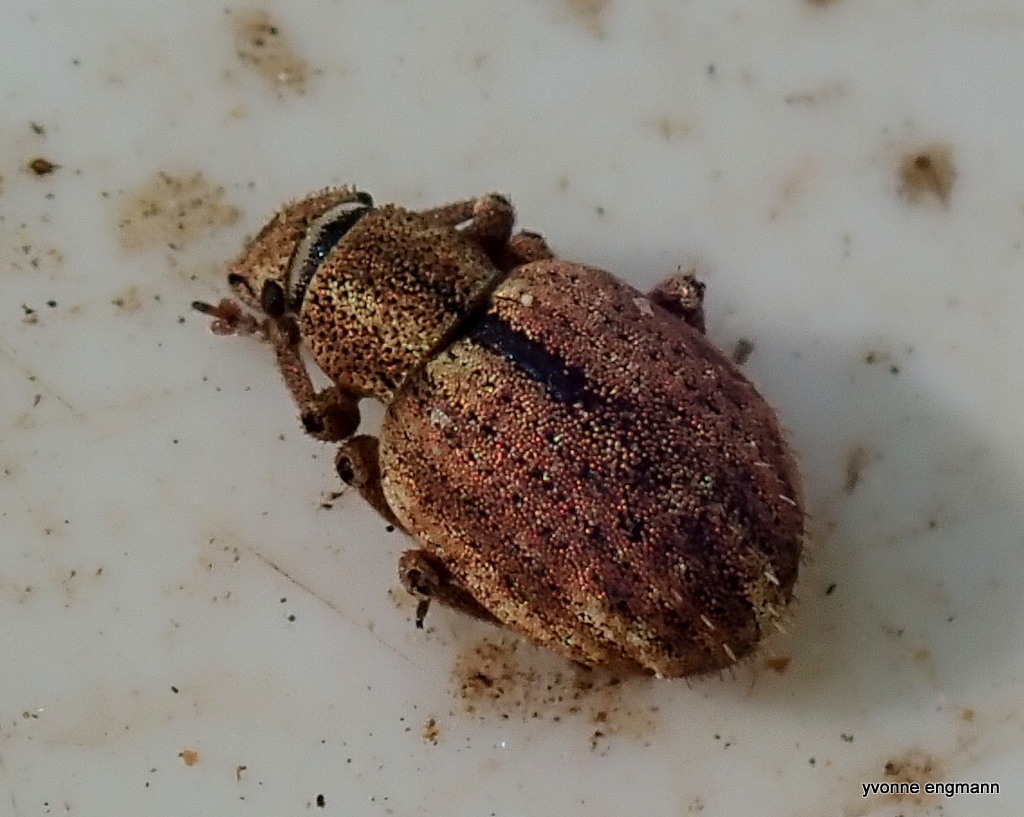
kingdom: Animalia
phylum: Arthropoda
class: Insecta
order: Coleoptera
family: Curculionidae
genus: Strophosoma
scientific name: Strophosoma melanogrammum
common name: Weevil
